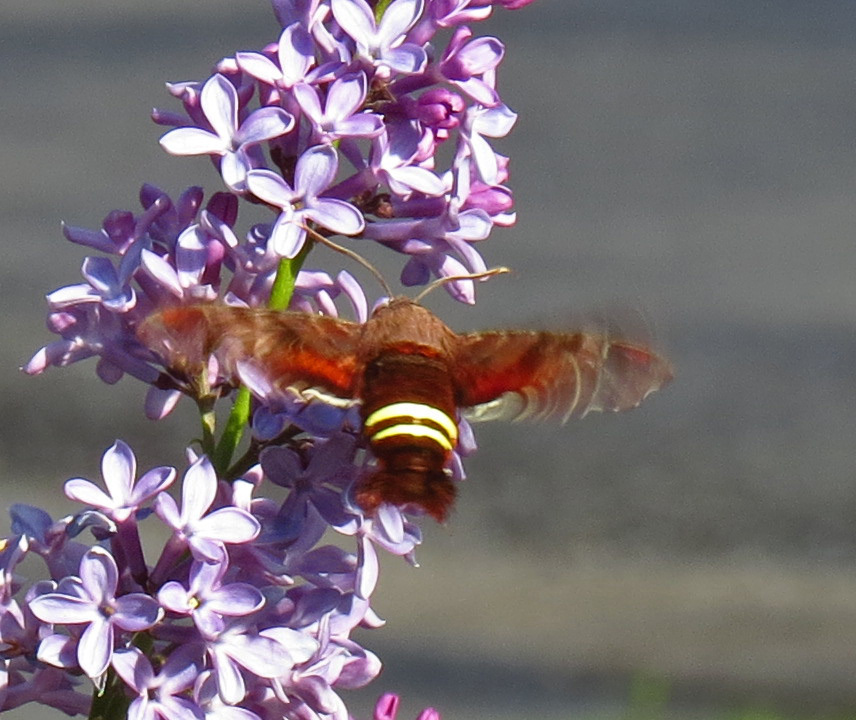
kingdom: Animalia
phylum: Arthropoda
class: Insecta
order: Lepidoptera
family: Sphingidae
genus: Amphion
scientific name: Amphion floridensis
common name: Nessus sphinx
